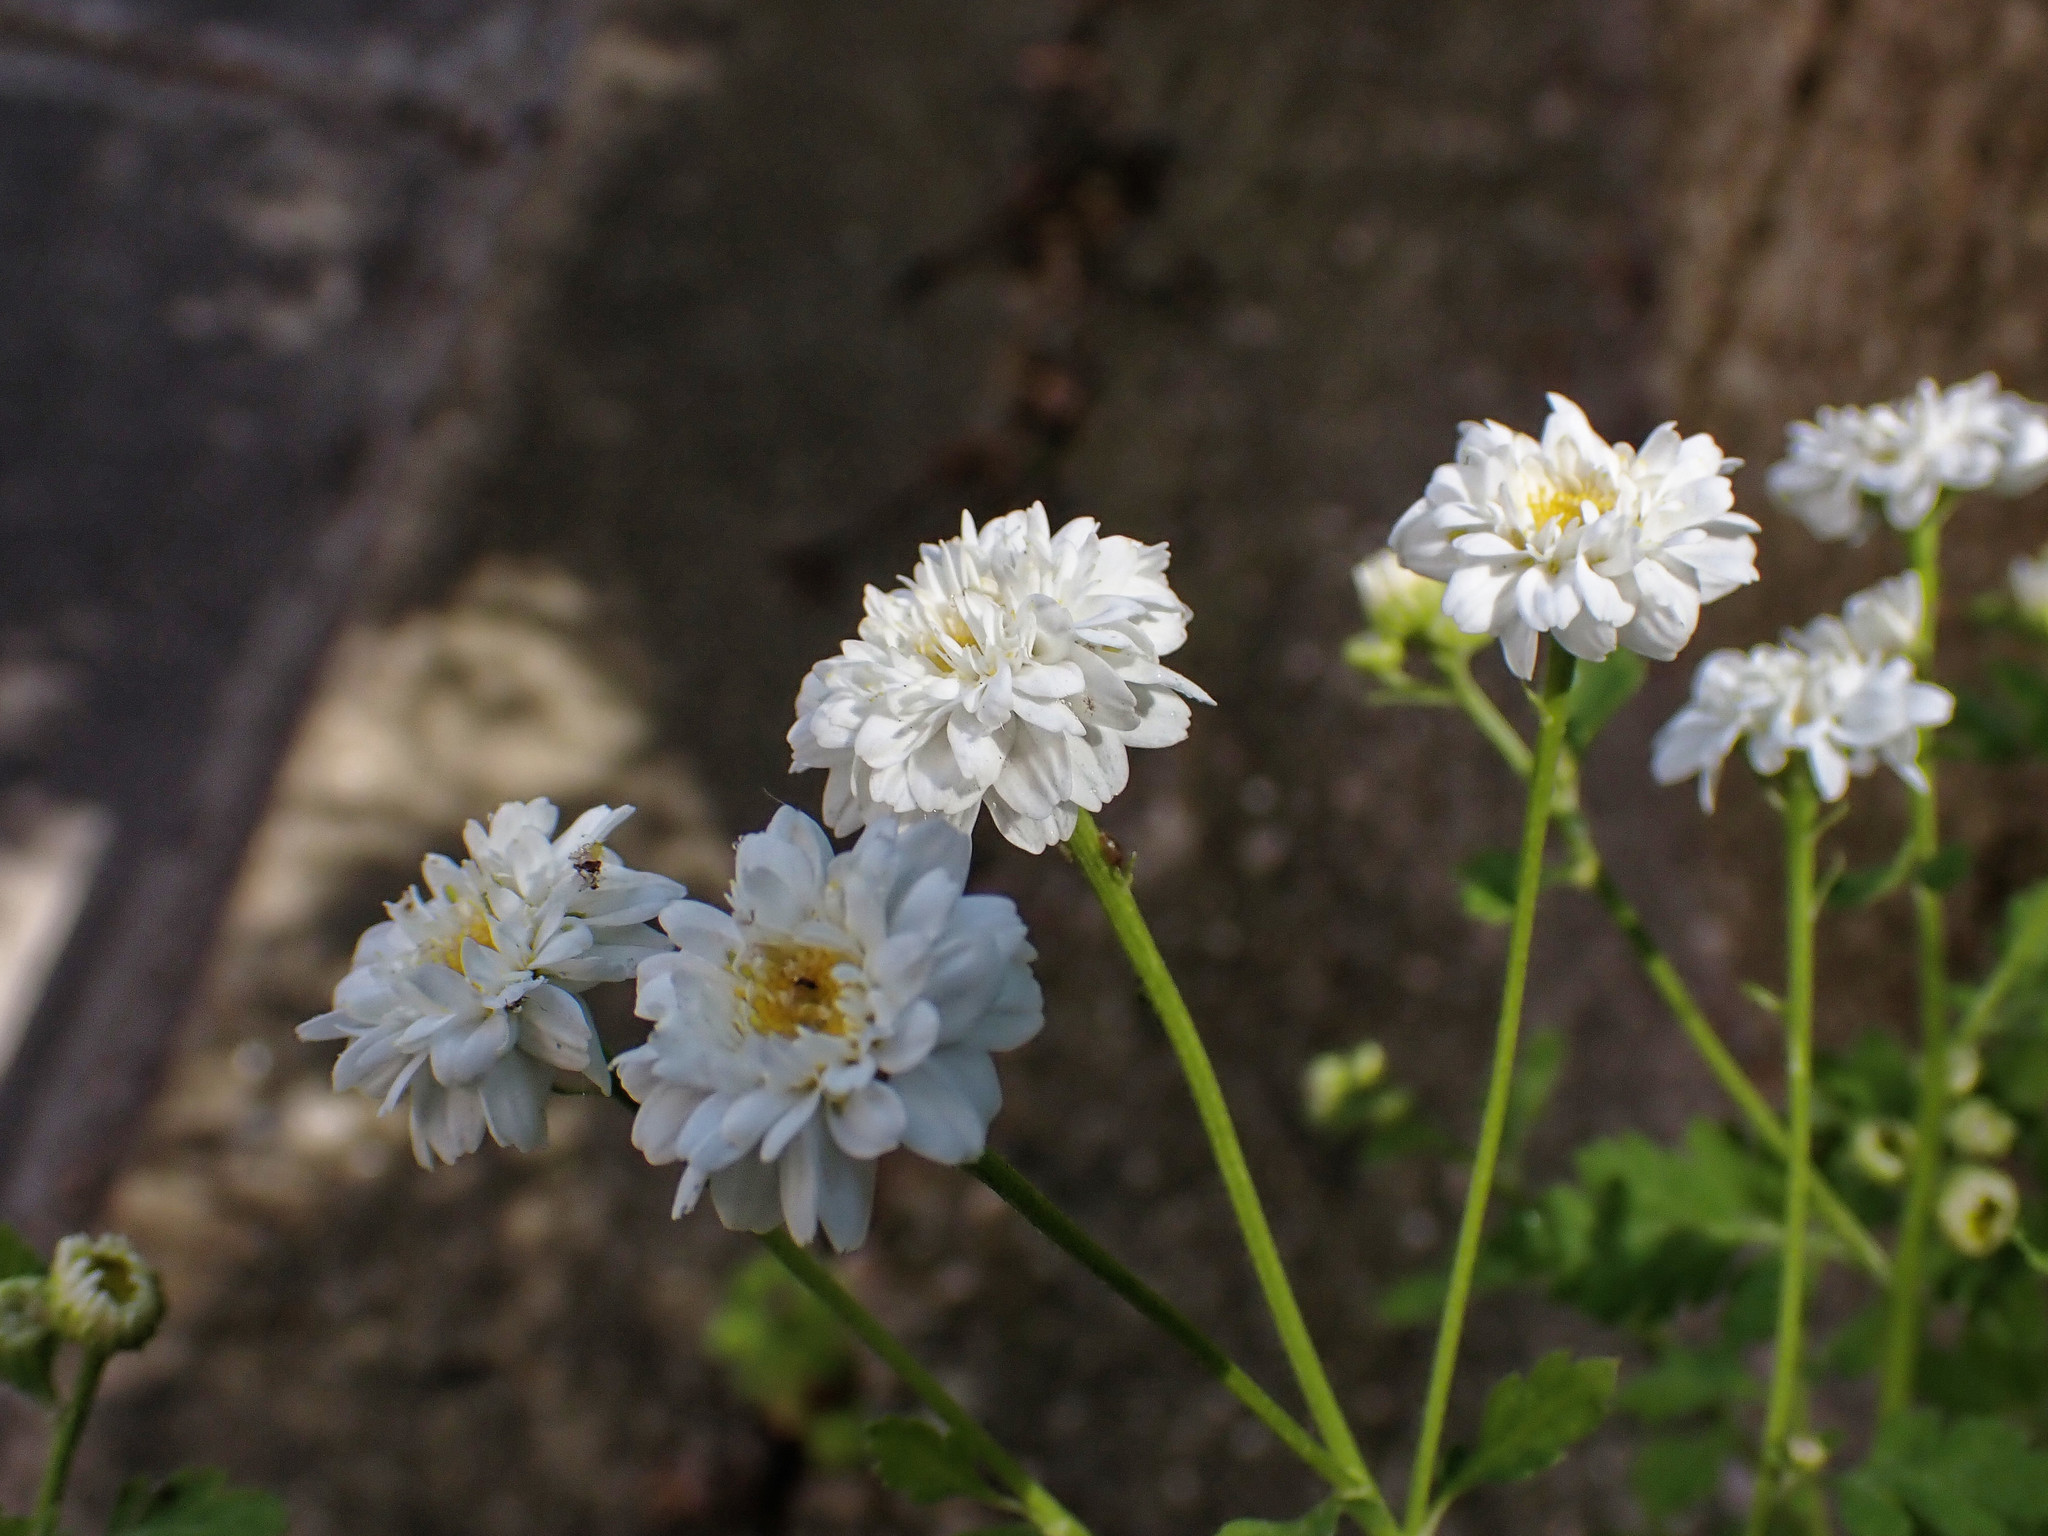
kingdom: Plantae
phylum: Tracheophyta
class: Magnoliopsida
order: Asterales
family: Asteraceae
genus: Tanacetum
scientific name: Tanacetum parthenium
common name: Feverfew
